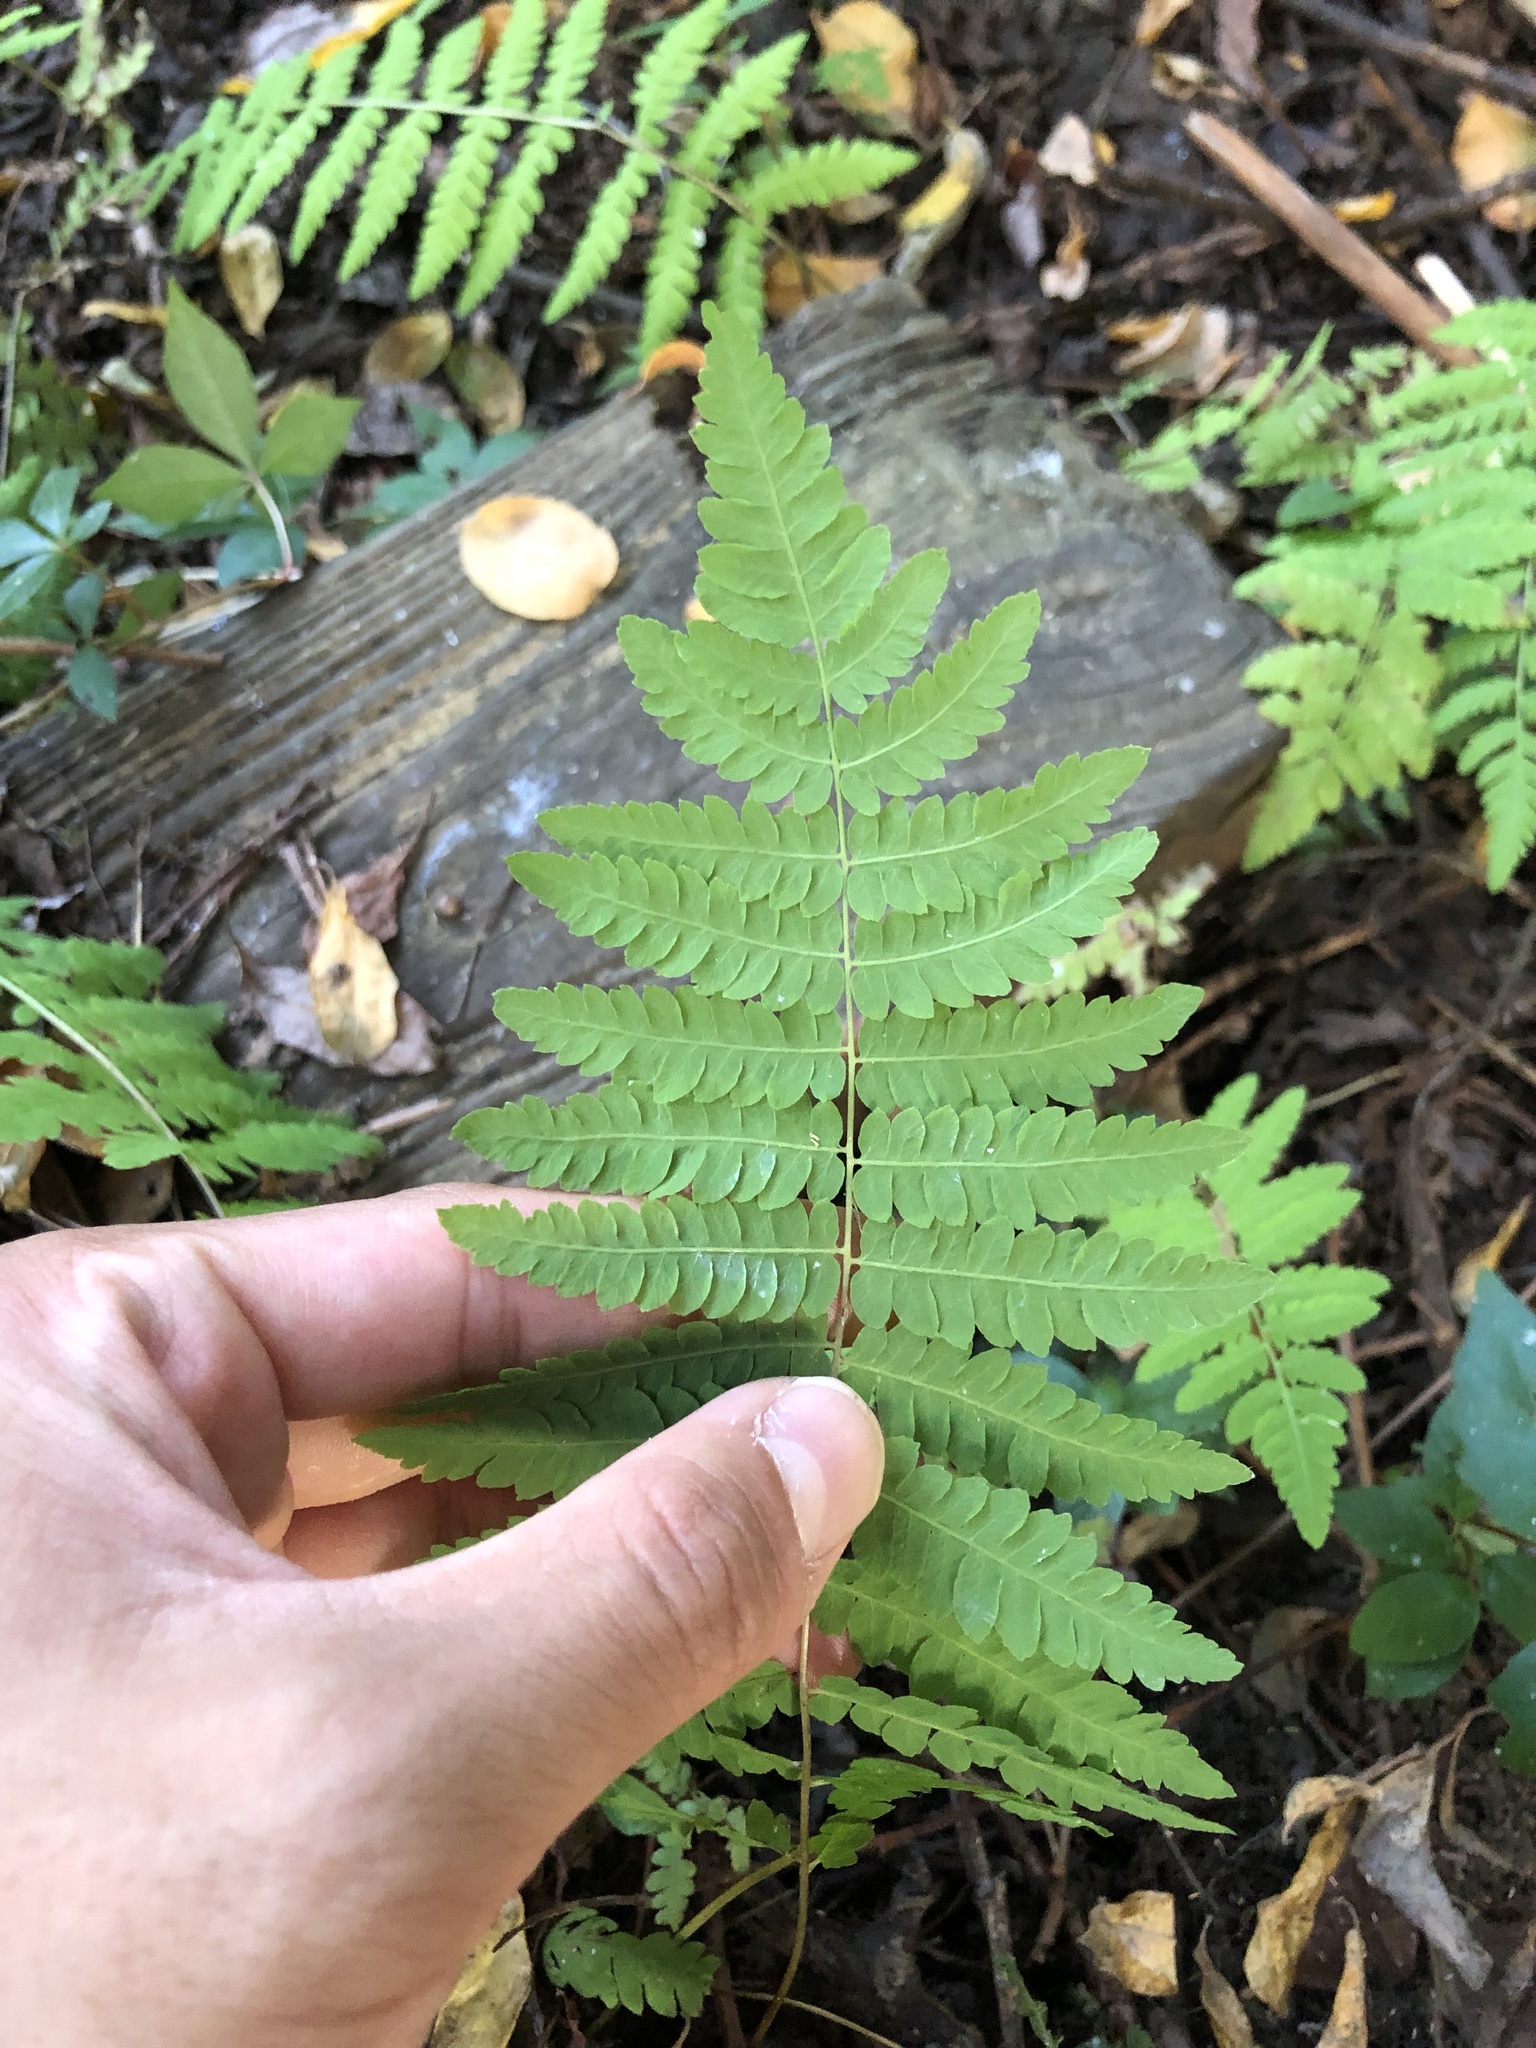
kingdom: Plantae
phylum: Tracheophyta
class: Polypodiopsida
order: Osmundales
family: Osmundaceae
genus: Claytosmunda
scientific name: Claytosmunda claytoniana
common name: Clayton's fern
